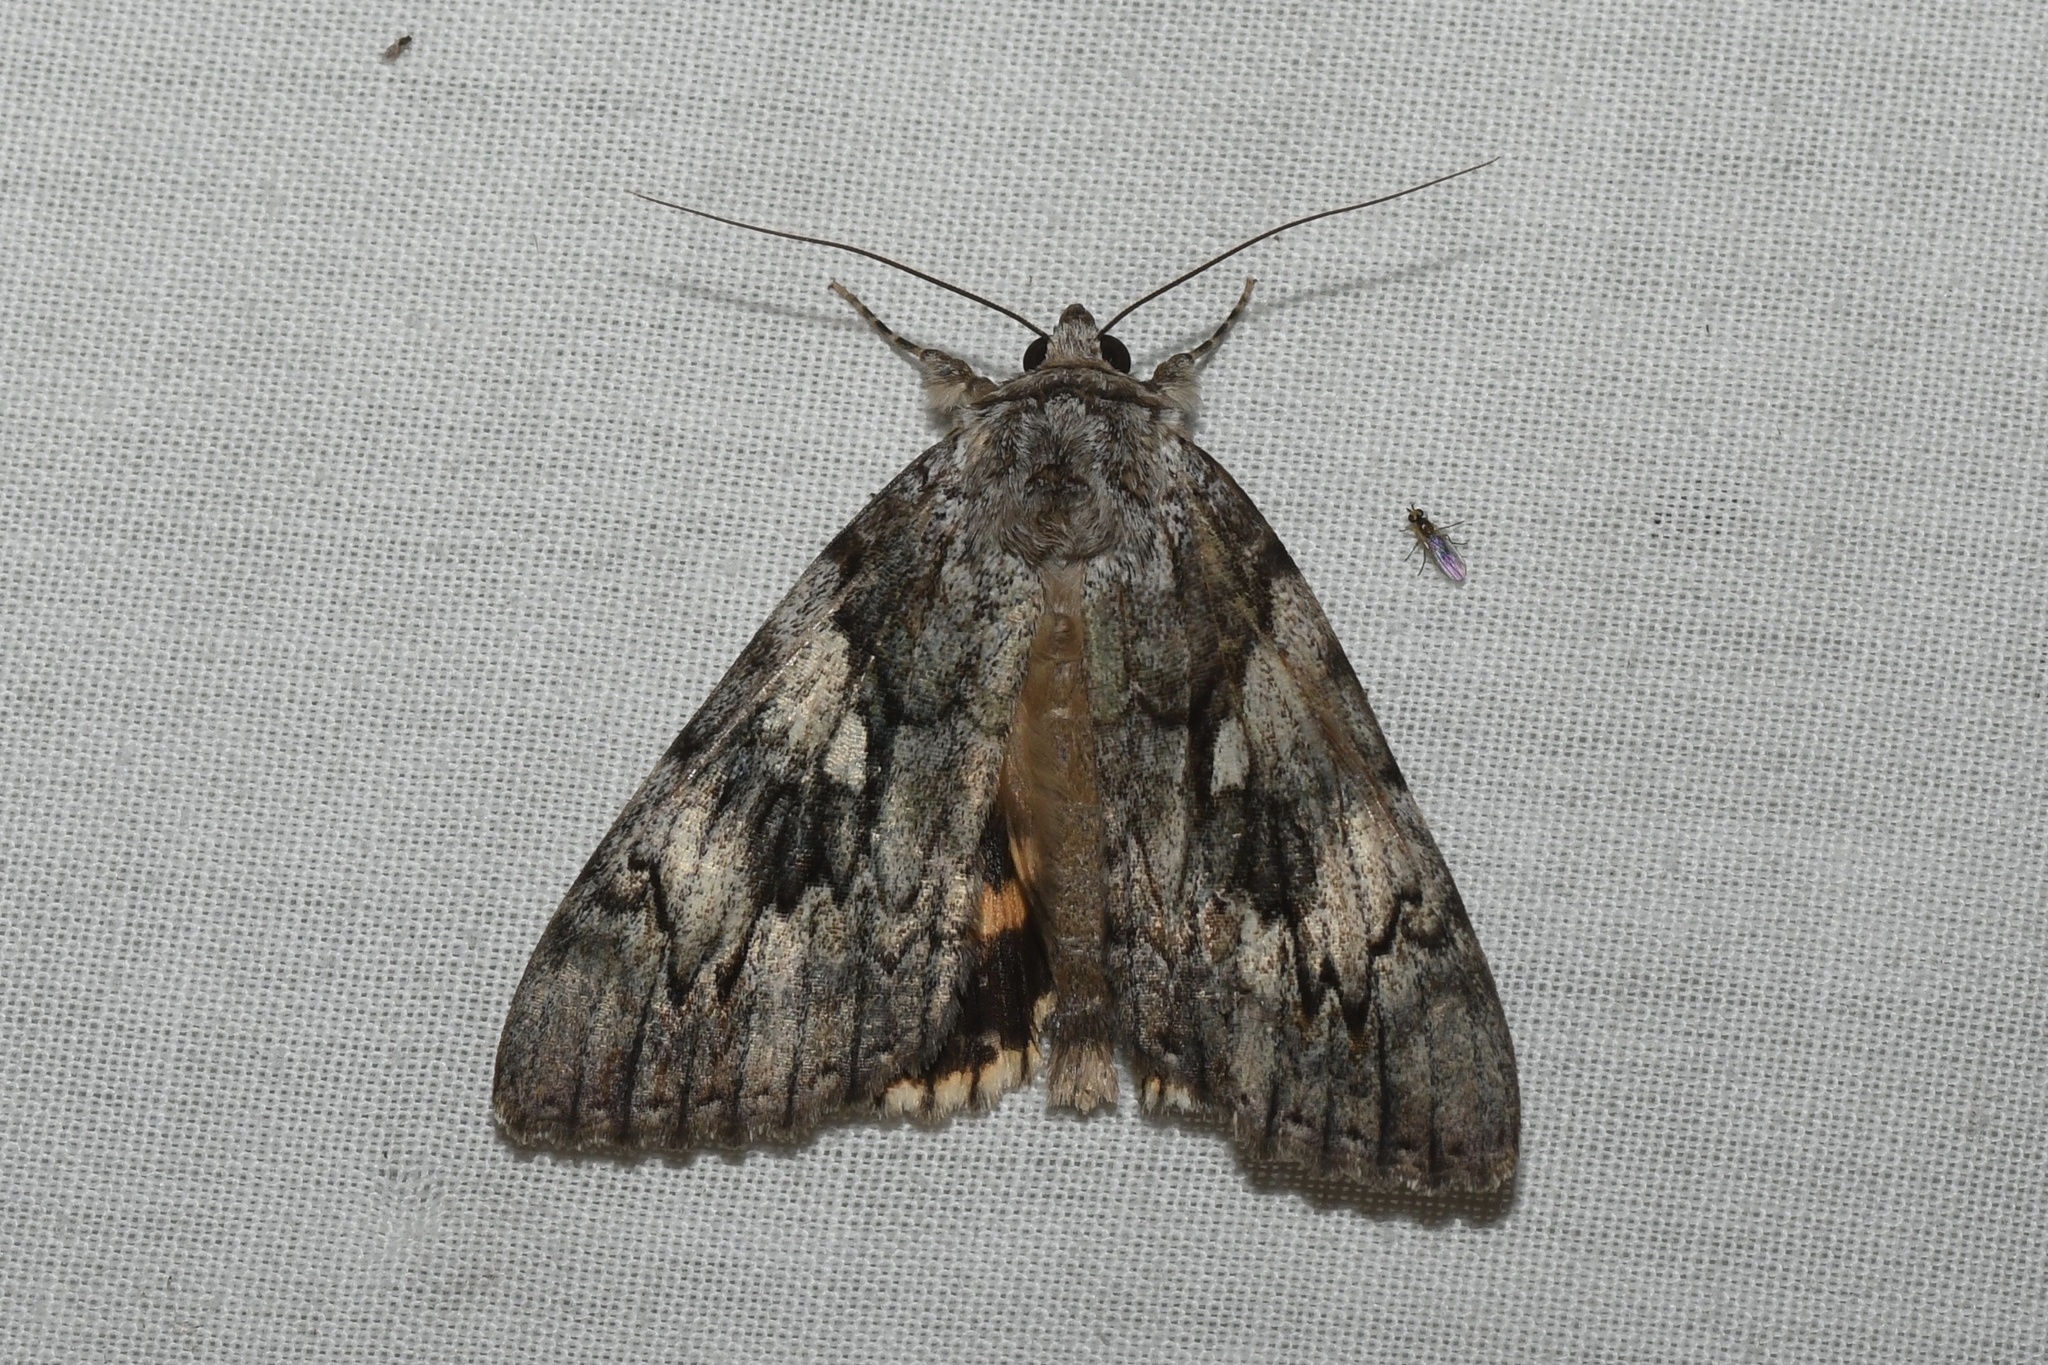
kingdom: Animalia
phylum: Arthropoda
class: Insecta
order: Lepidoptera
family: Erebidae
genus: Catocala
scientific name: Catocala cerogama
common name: Yellow banded underwing
